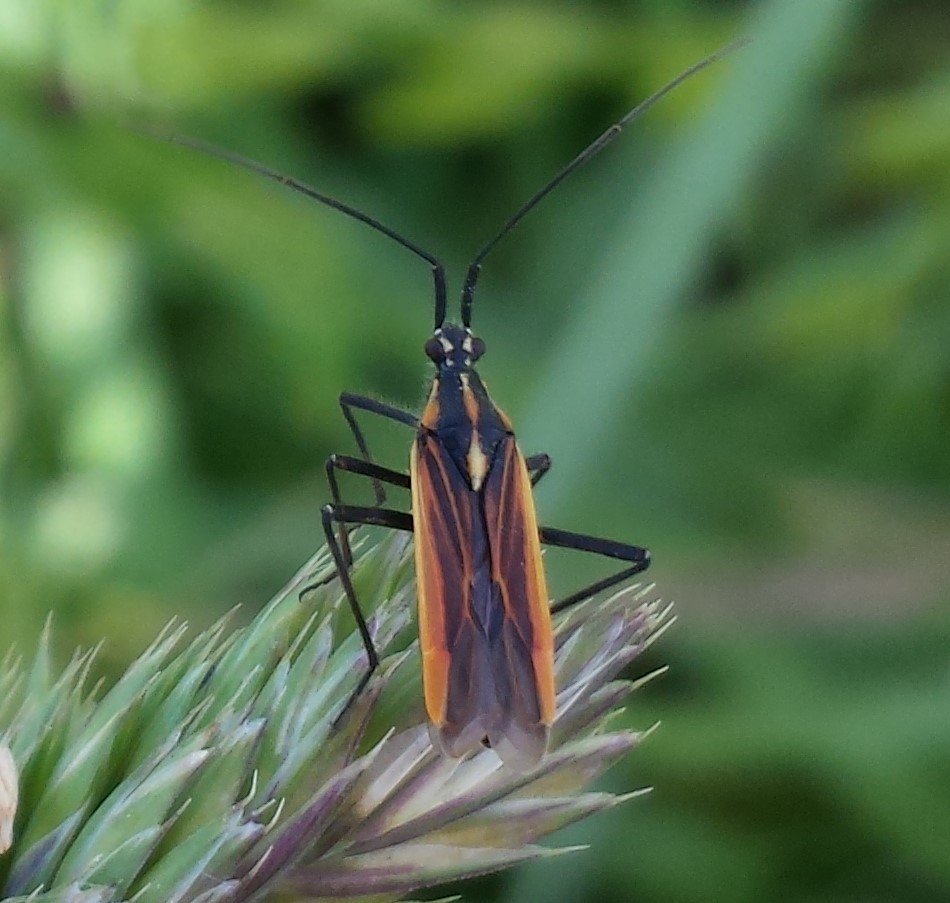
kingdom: Animalia
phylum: Arthropoda
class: Insecta
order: Hemiptera
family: Miridae
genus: Leptopterna
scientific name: Leptopterna dolabrata
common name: Meadow plant bug
